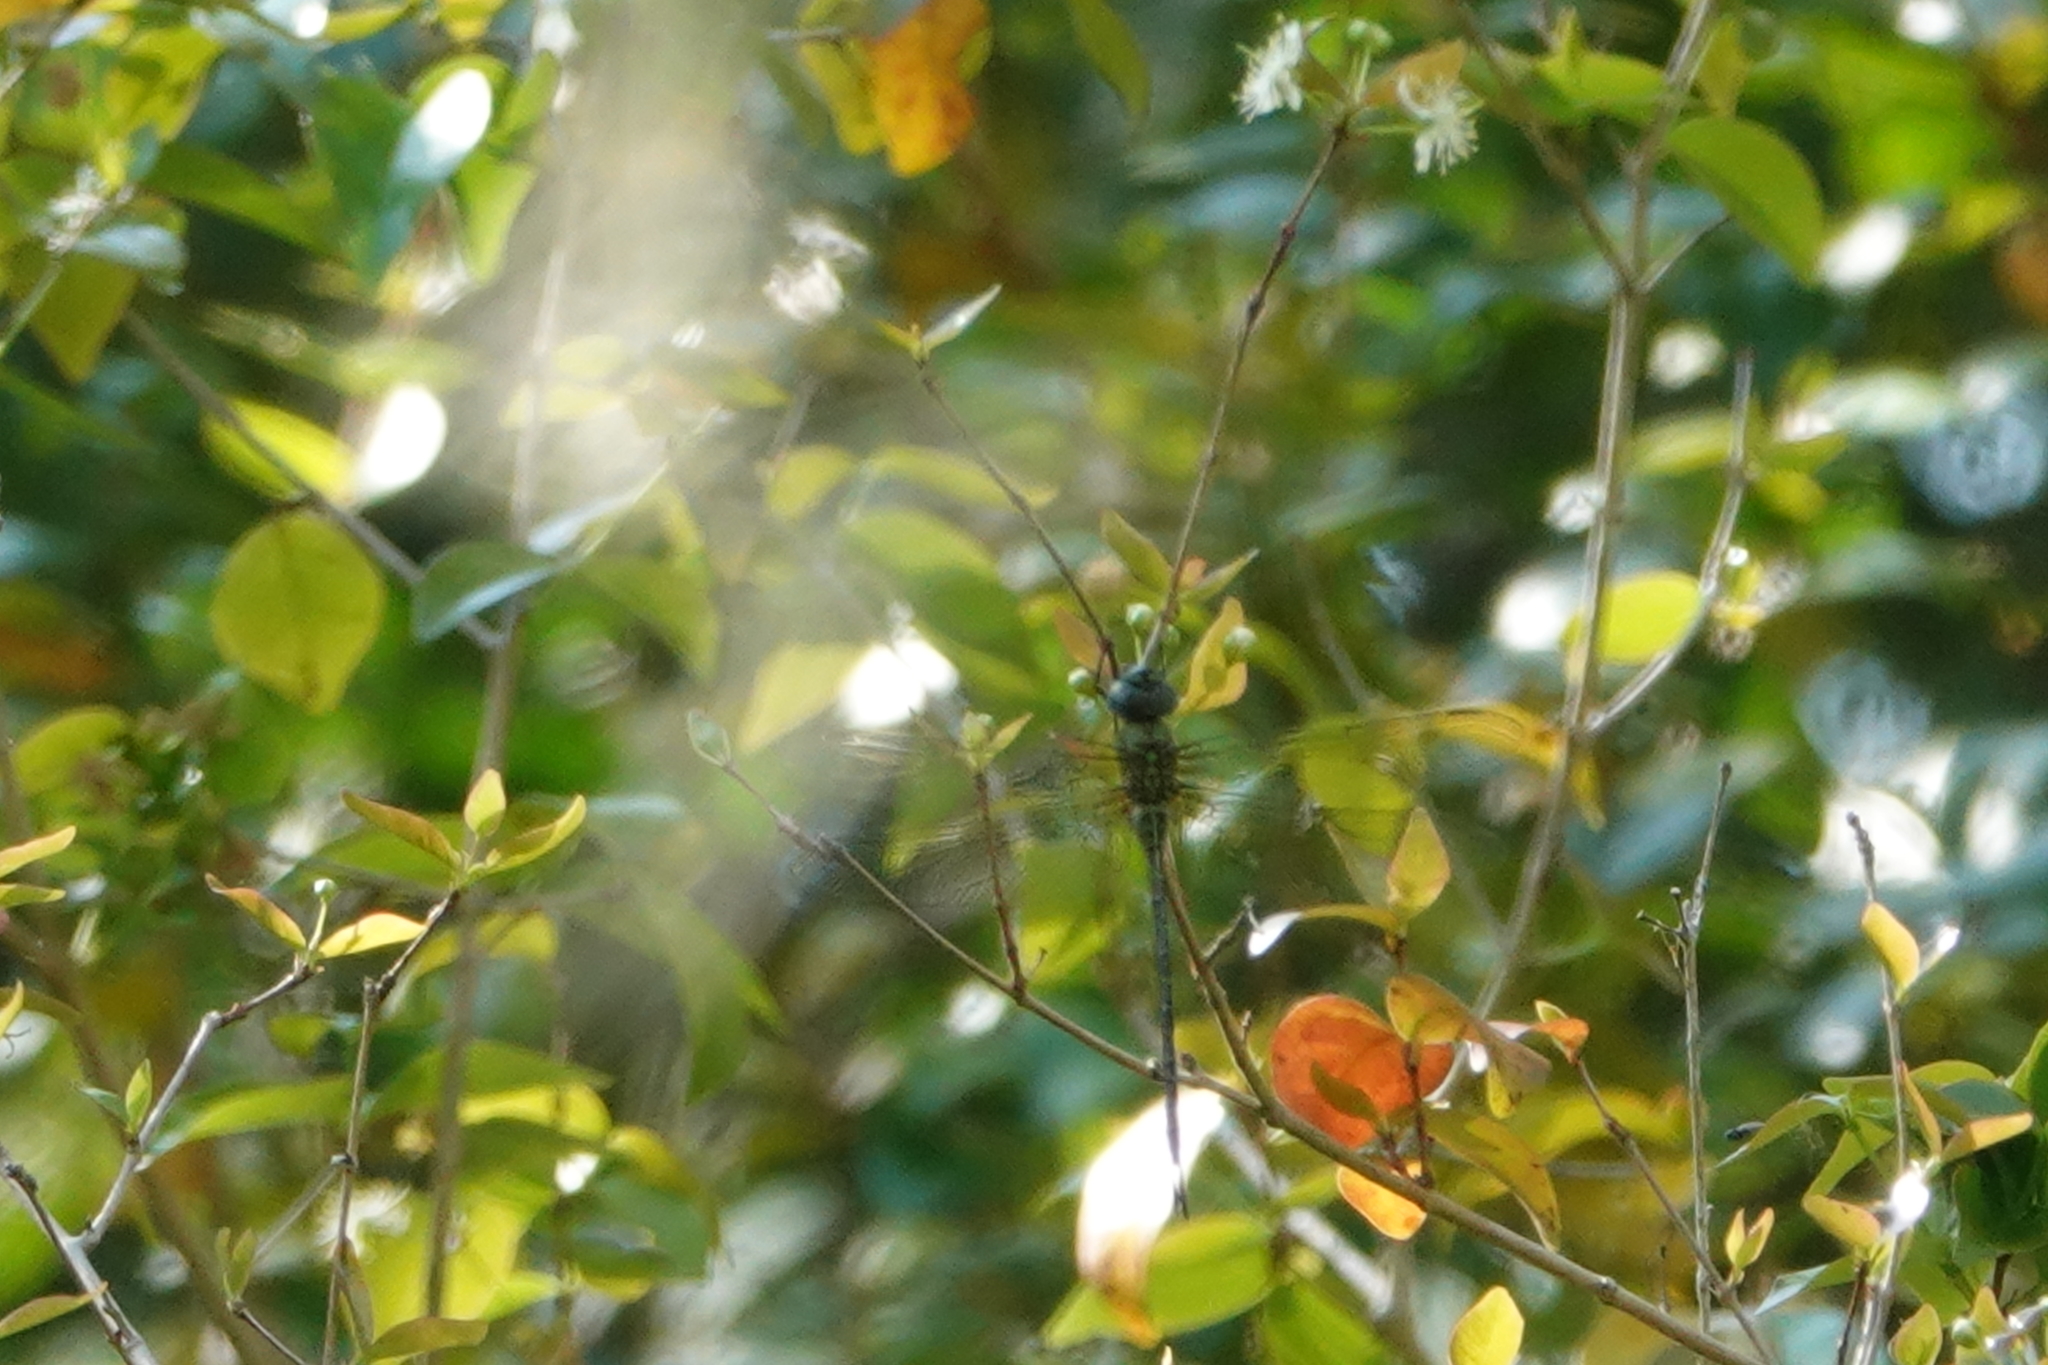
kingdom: Animalia
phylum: Arthropoda
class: Insecta
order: Odonata
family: Aeshnidae
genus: Coryphaeschna
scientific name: Coryphaeschna adnexa
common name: Blue-faced darner
